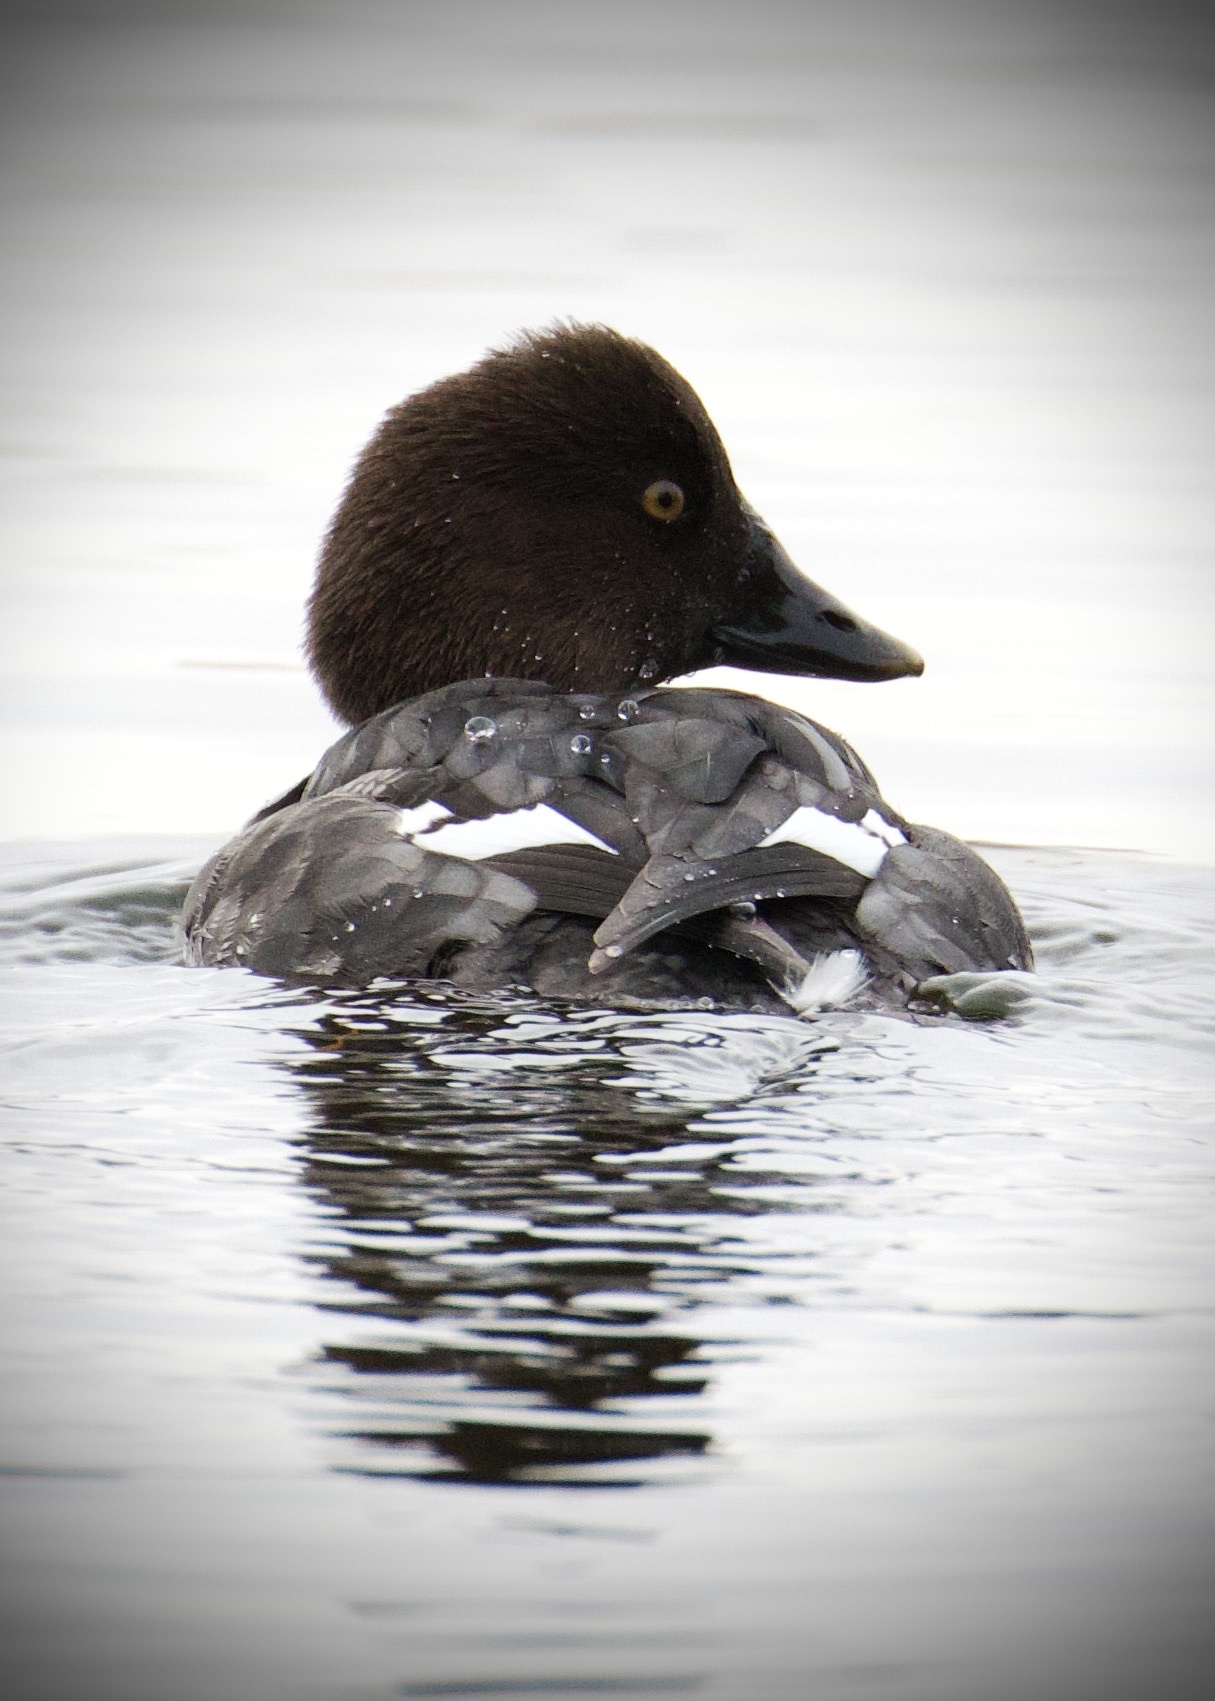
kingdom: Animalia
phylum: Chordata
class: Aves
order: Anseriformes
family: Anatidae
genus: Bucephala
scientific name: Bucephala clangula
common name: Common goldeneye
